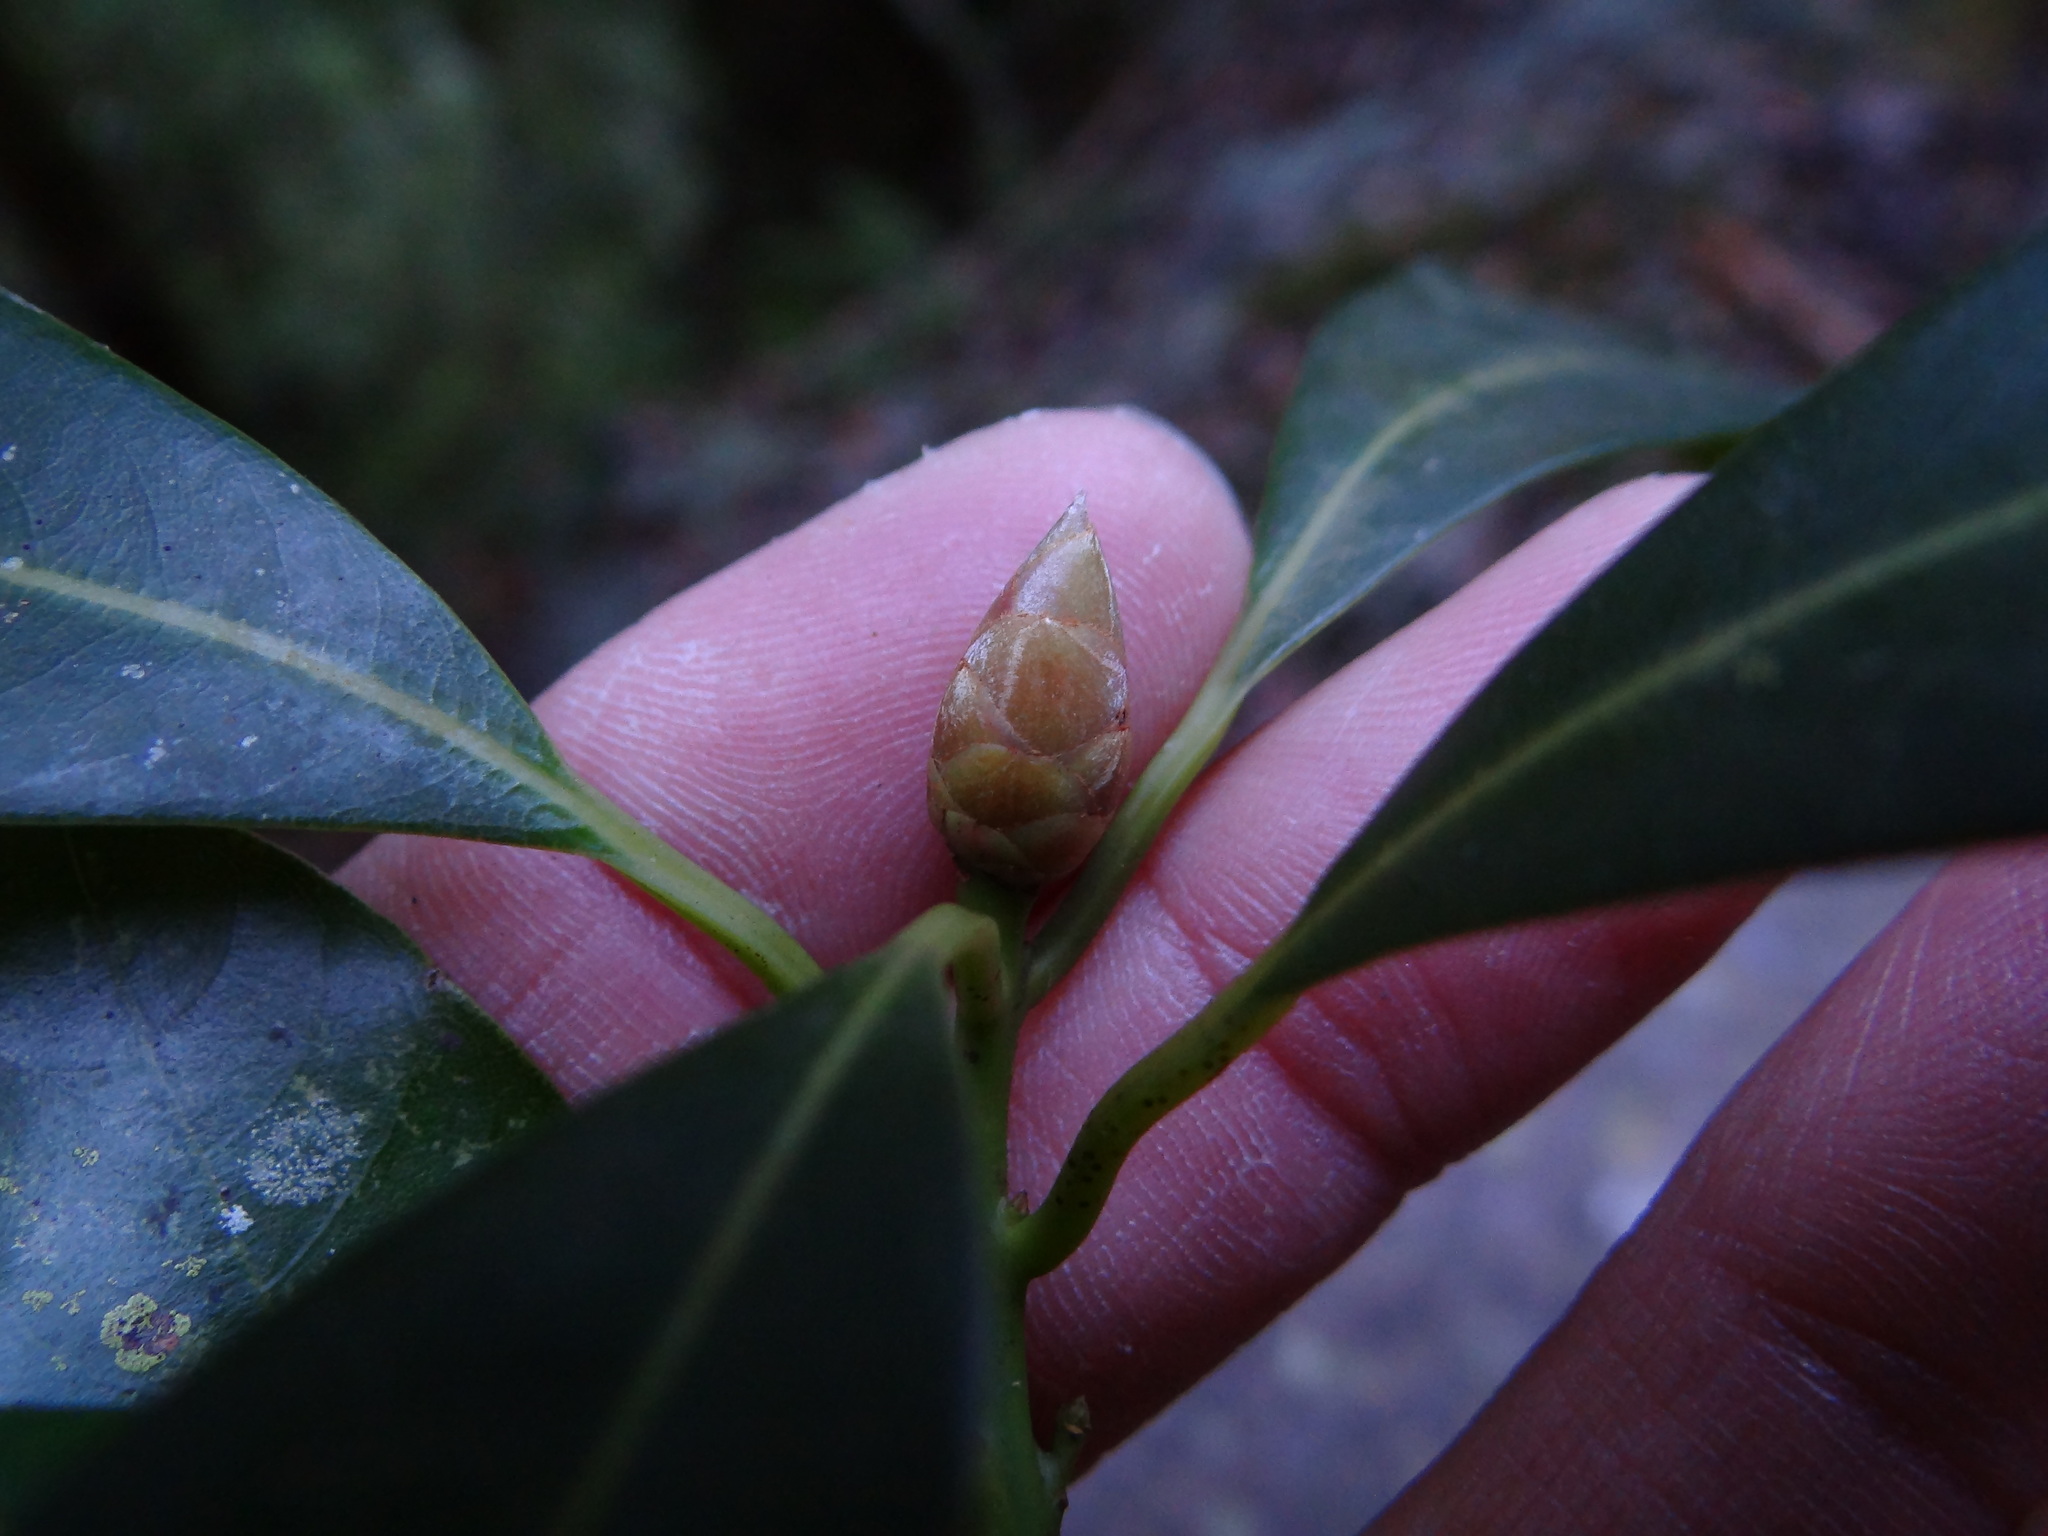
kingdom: Animalia
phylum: Arthropoda
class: Insecta
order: Diptera
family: Cecidomyiidae
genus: Daphnephila
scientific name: Daphnephila taiwanensis
